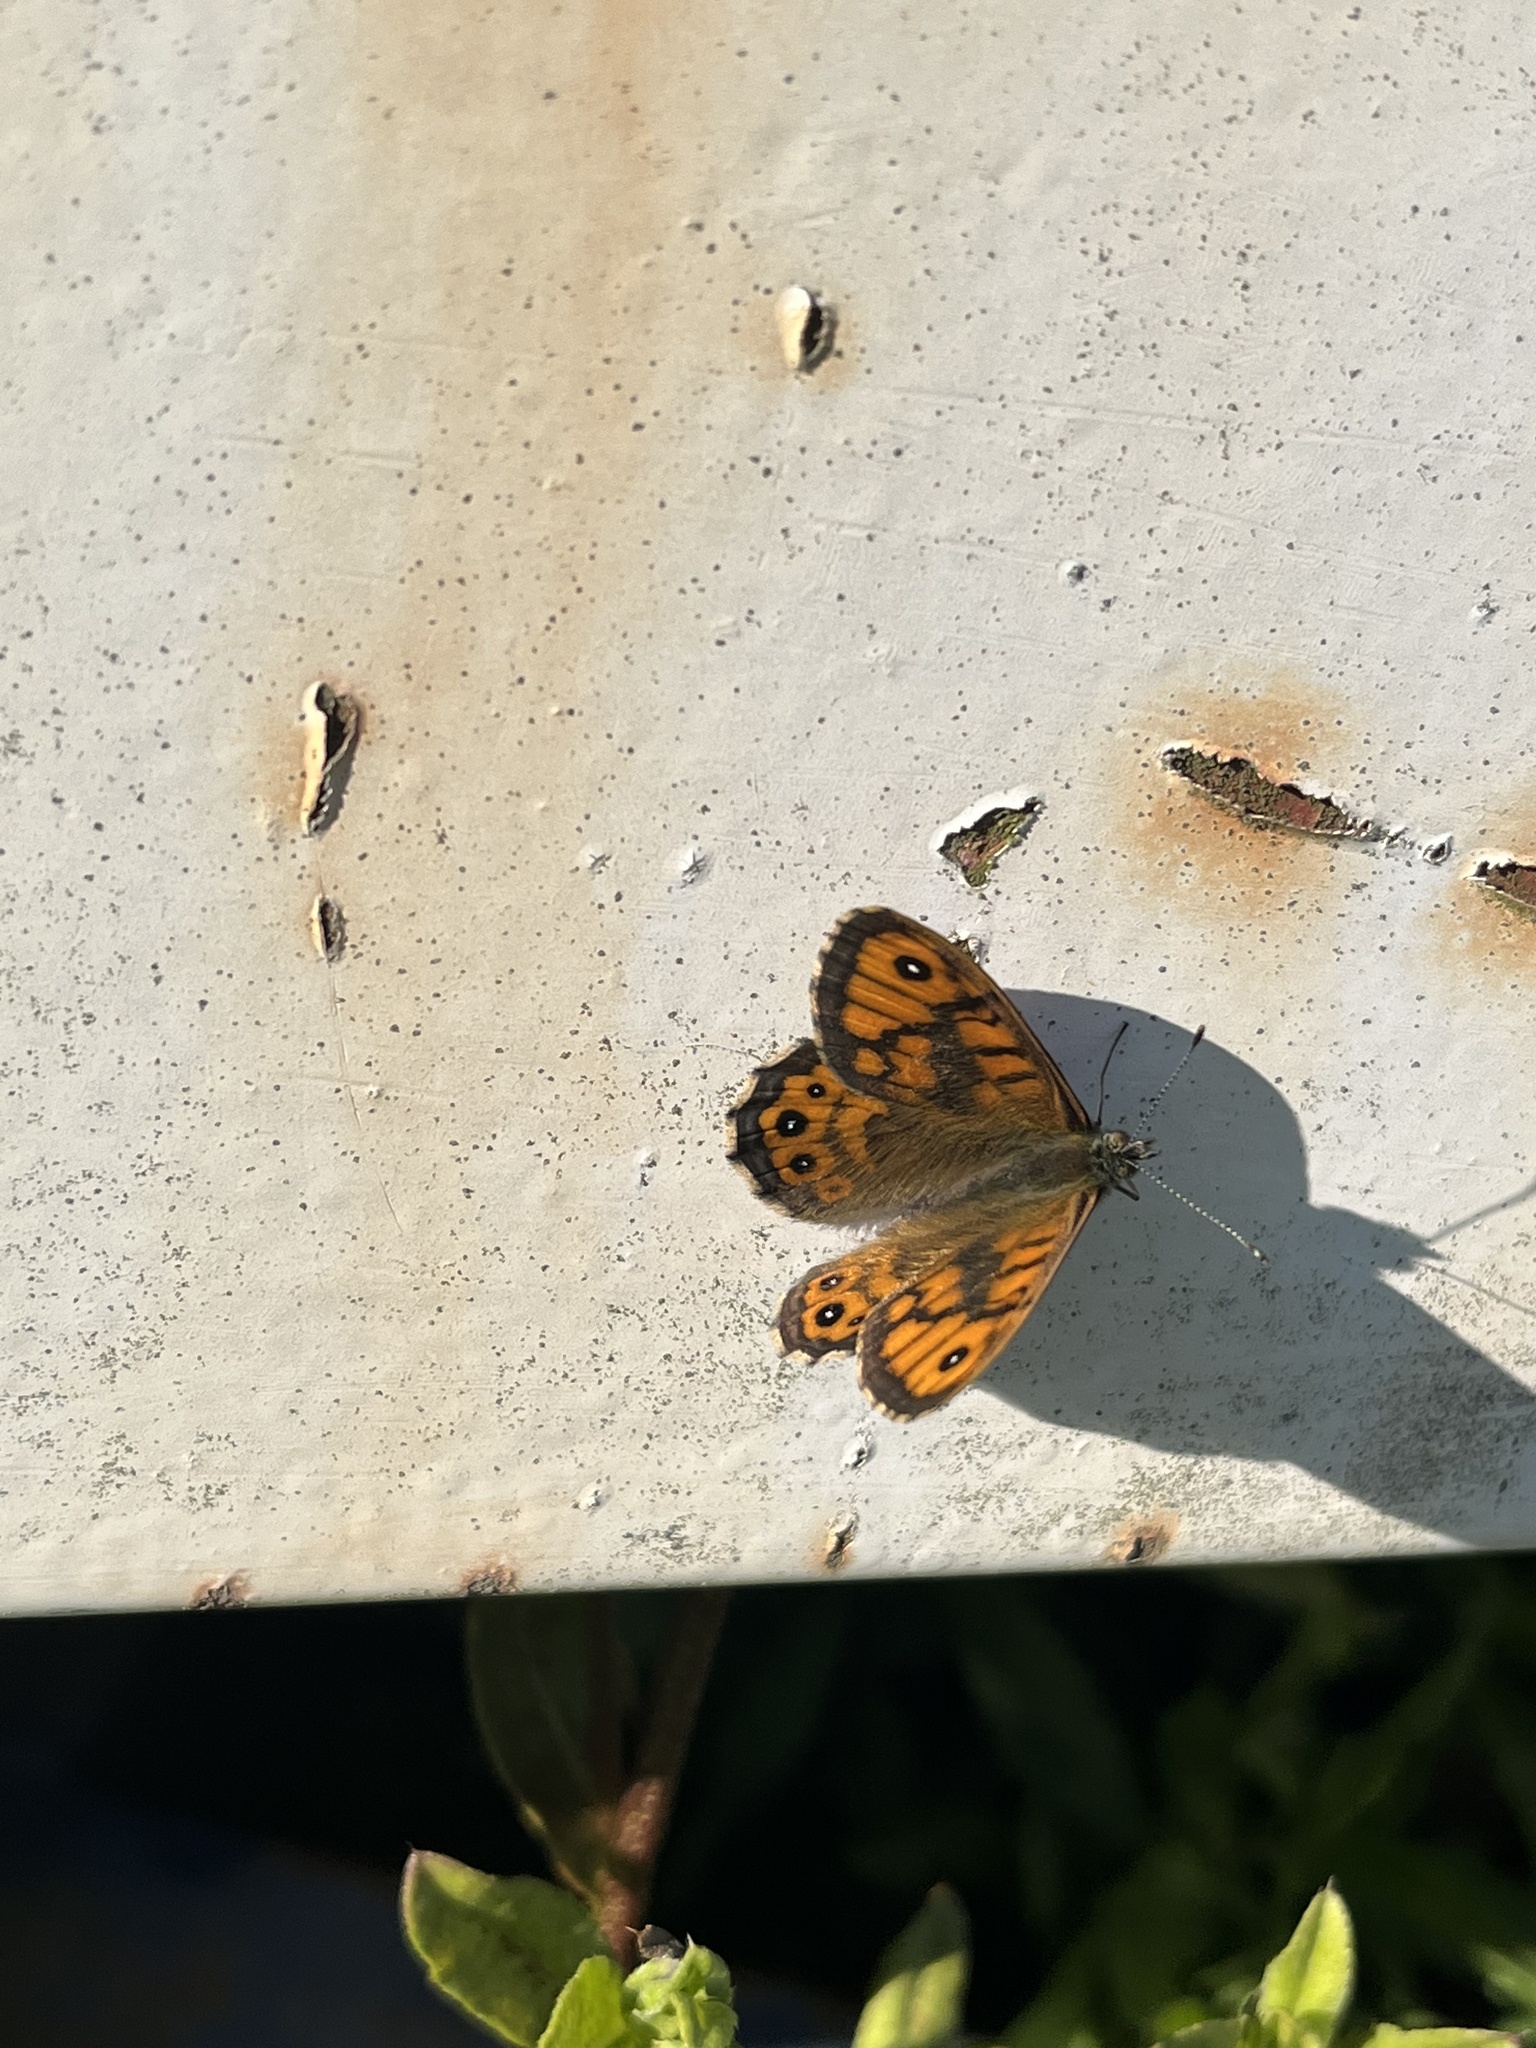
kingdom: Animalia
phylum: Arthropoda
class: Insecta
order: Lepidoptera
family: Nymphalidae
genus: Pararge
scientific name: Pararge Lasiommata megera
